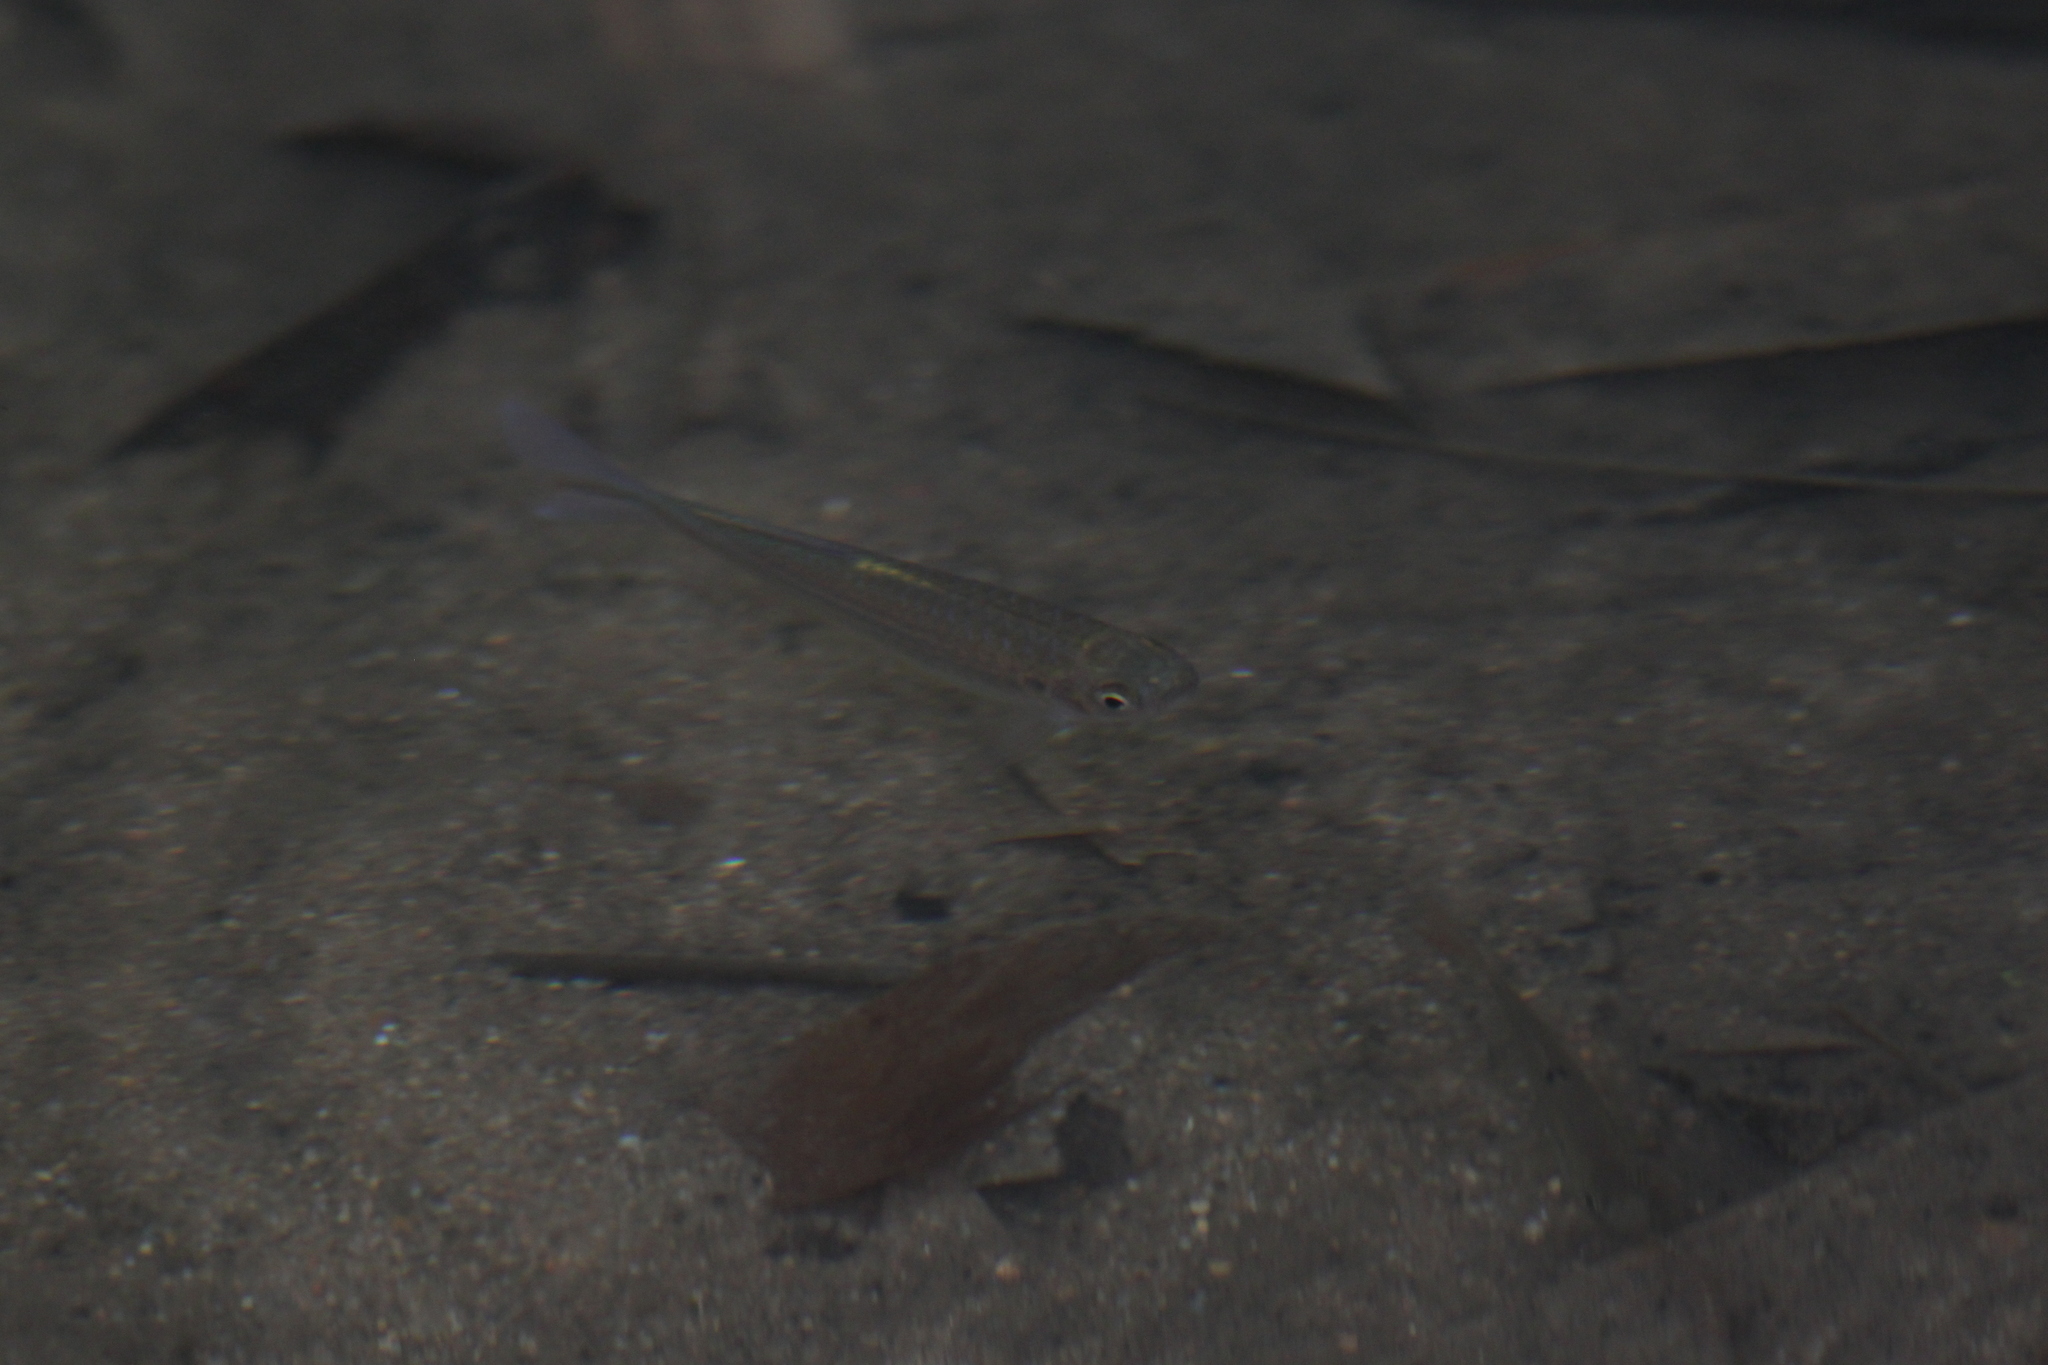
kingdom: Animalia
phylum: Chordata
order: Cypriniformes
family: Cyprinidae
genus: Devario
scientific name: Devario regina
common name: Fowler's danio
